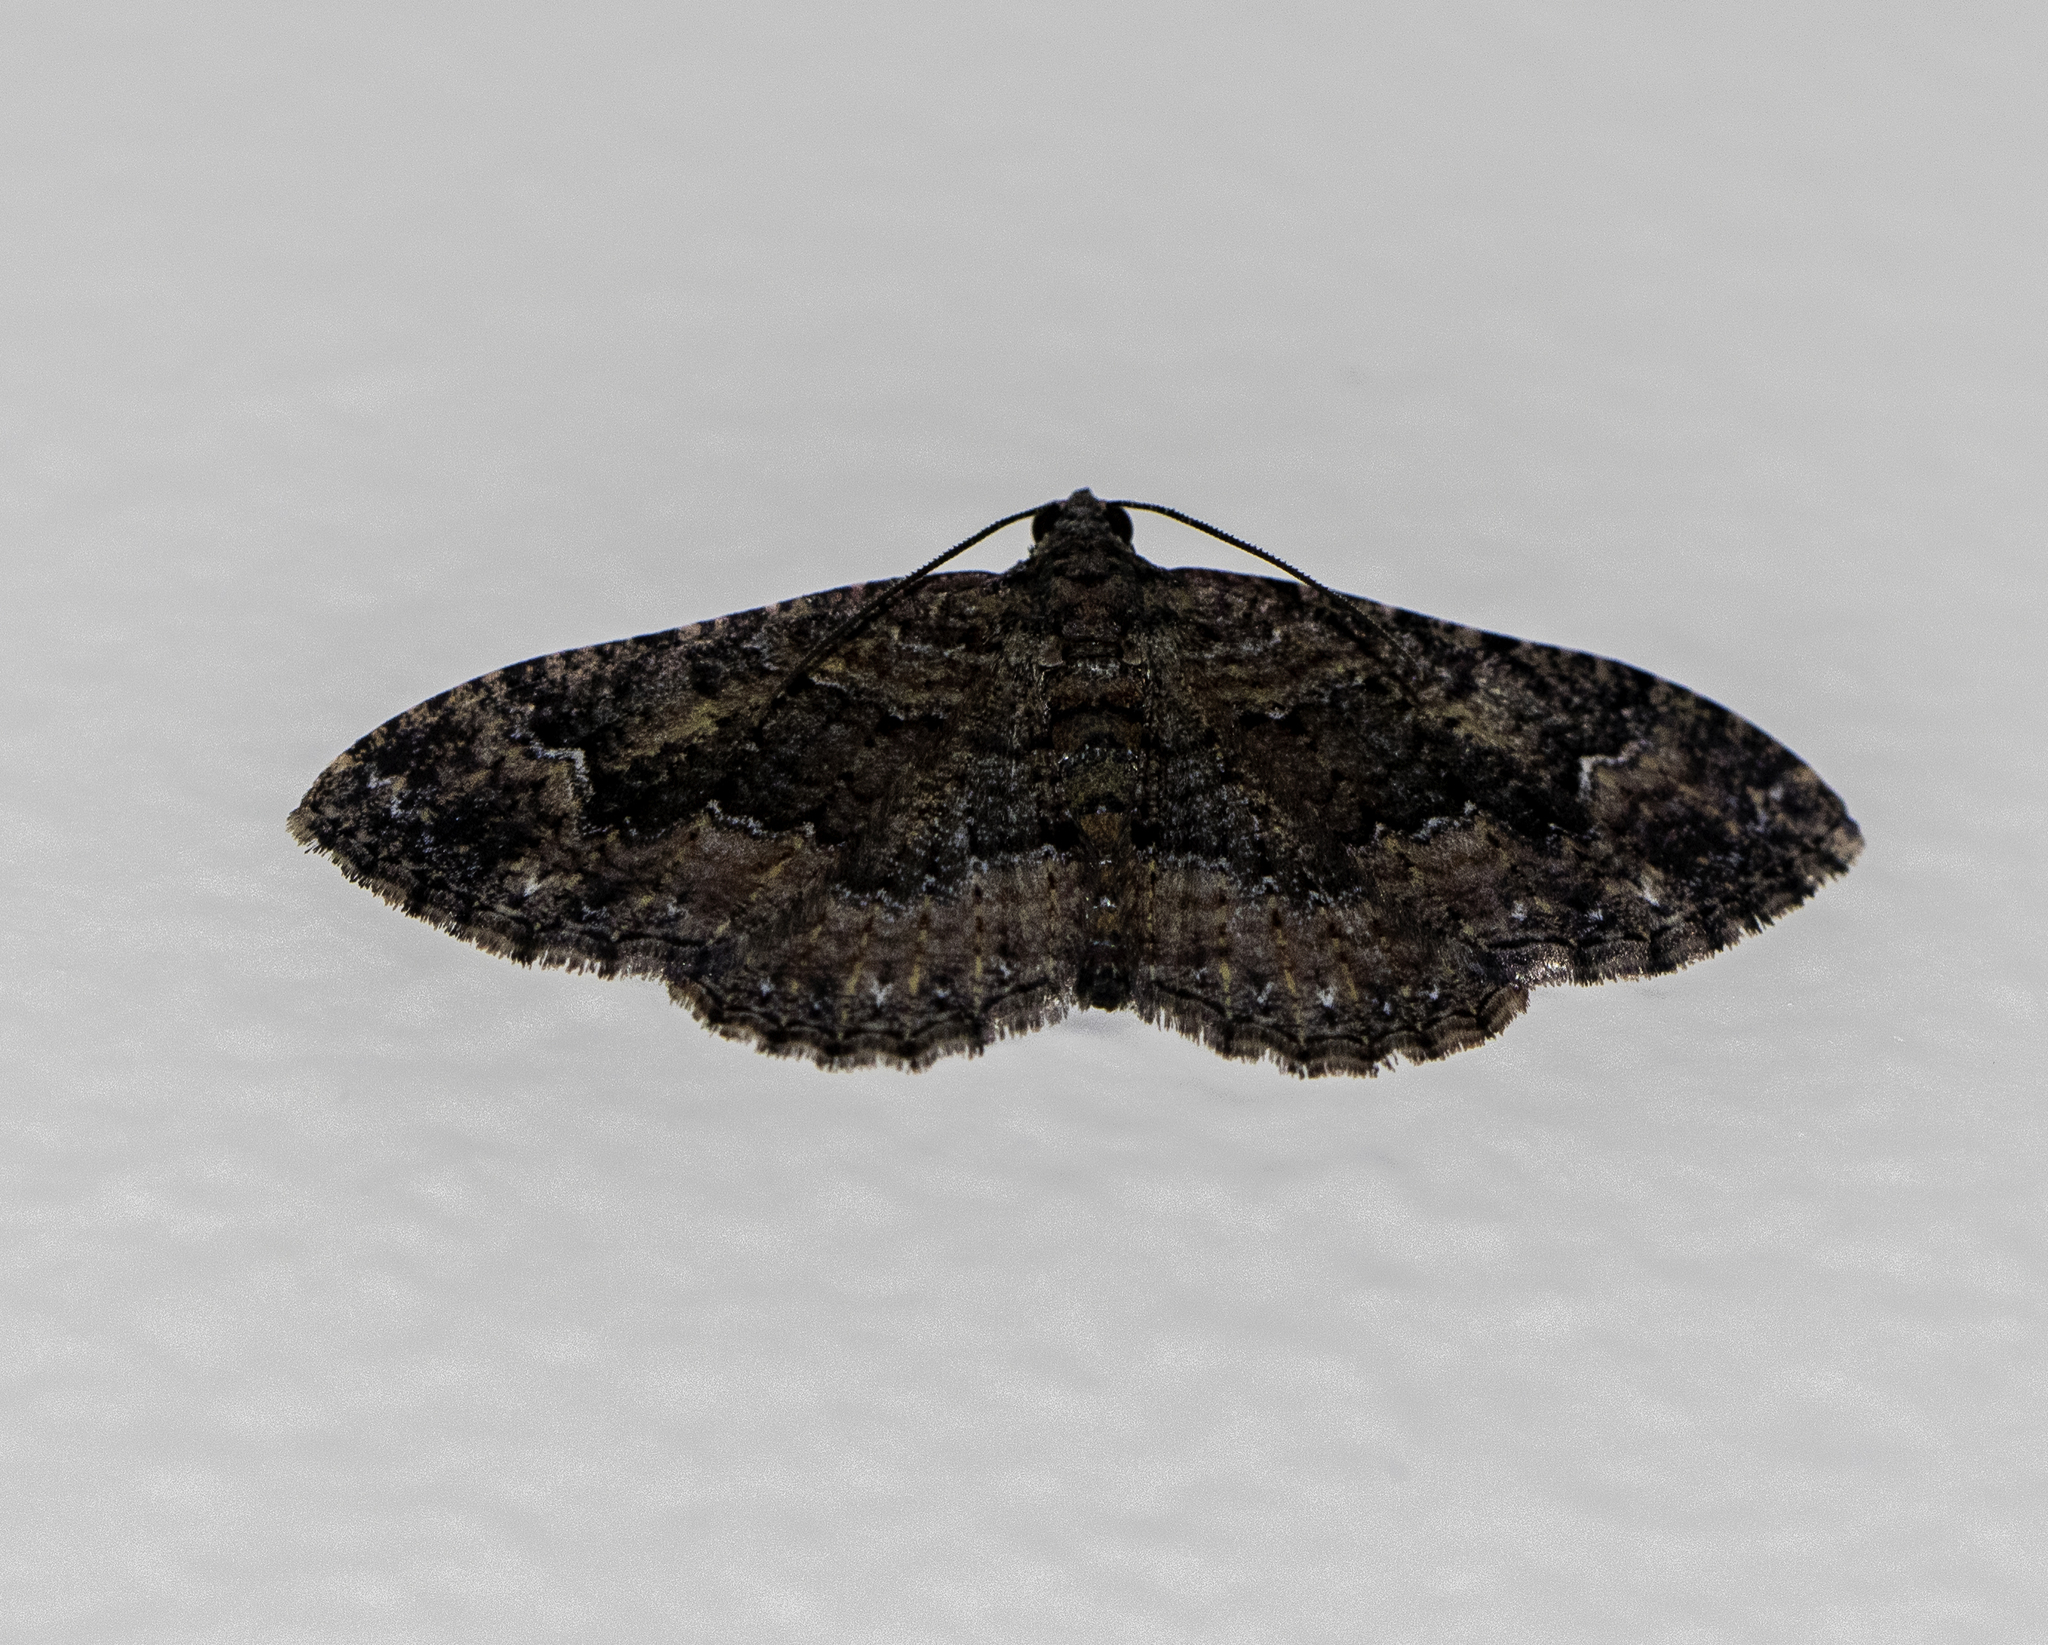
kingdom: Animalia
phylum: Arthropoda
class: Insecta
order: Lepidoptera
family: Geometridae
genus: Disclisioprocta
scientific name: Disclisioprocta stellata
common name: Somber carpet
